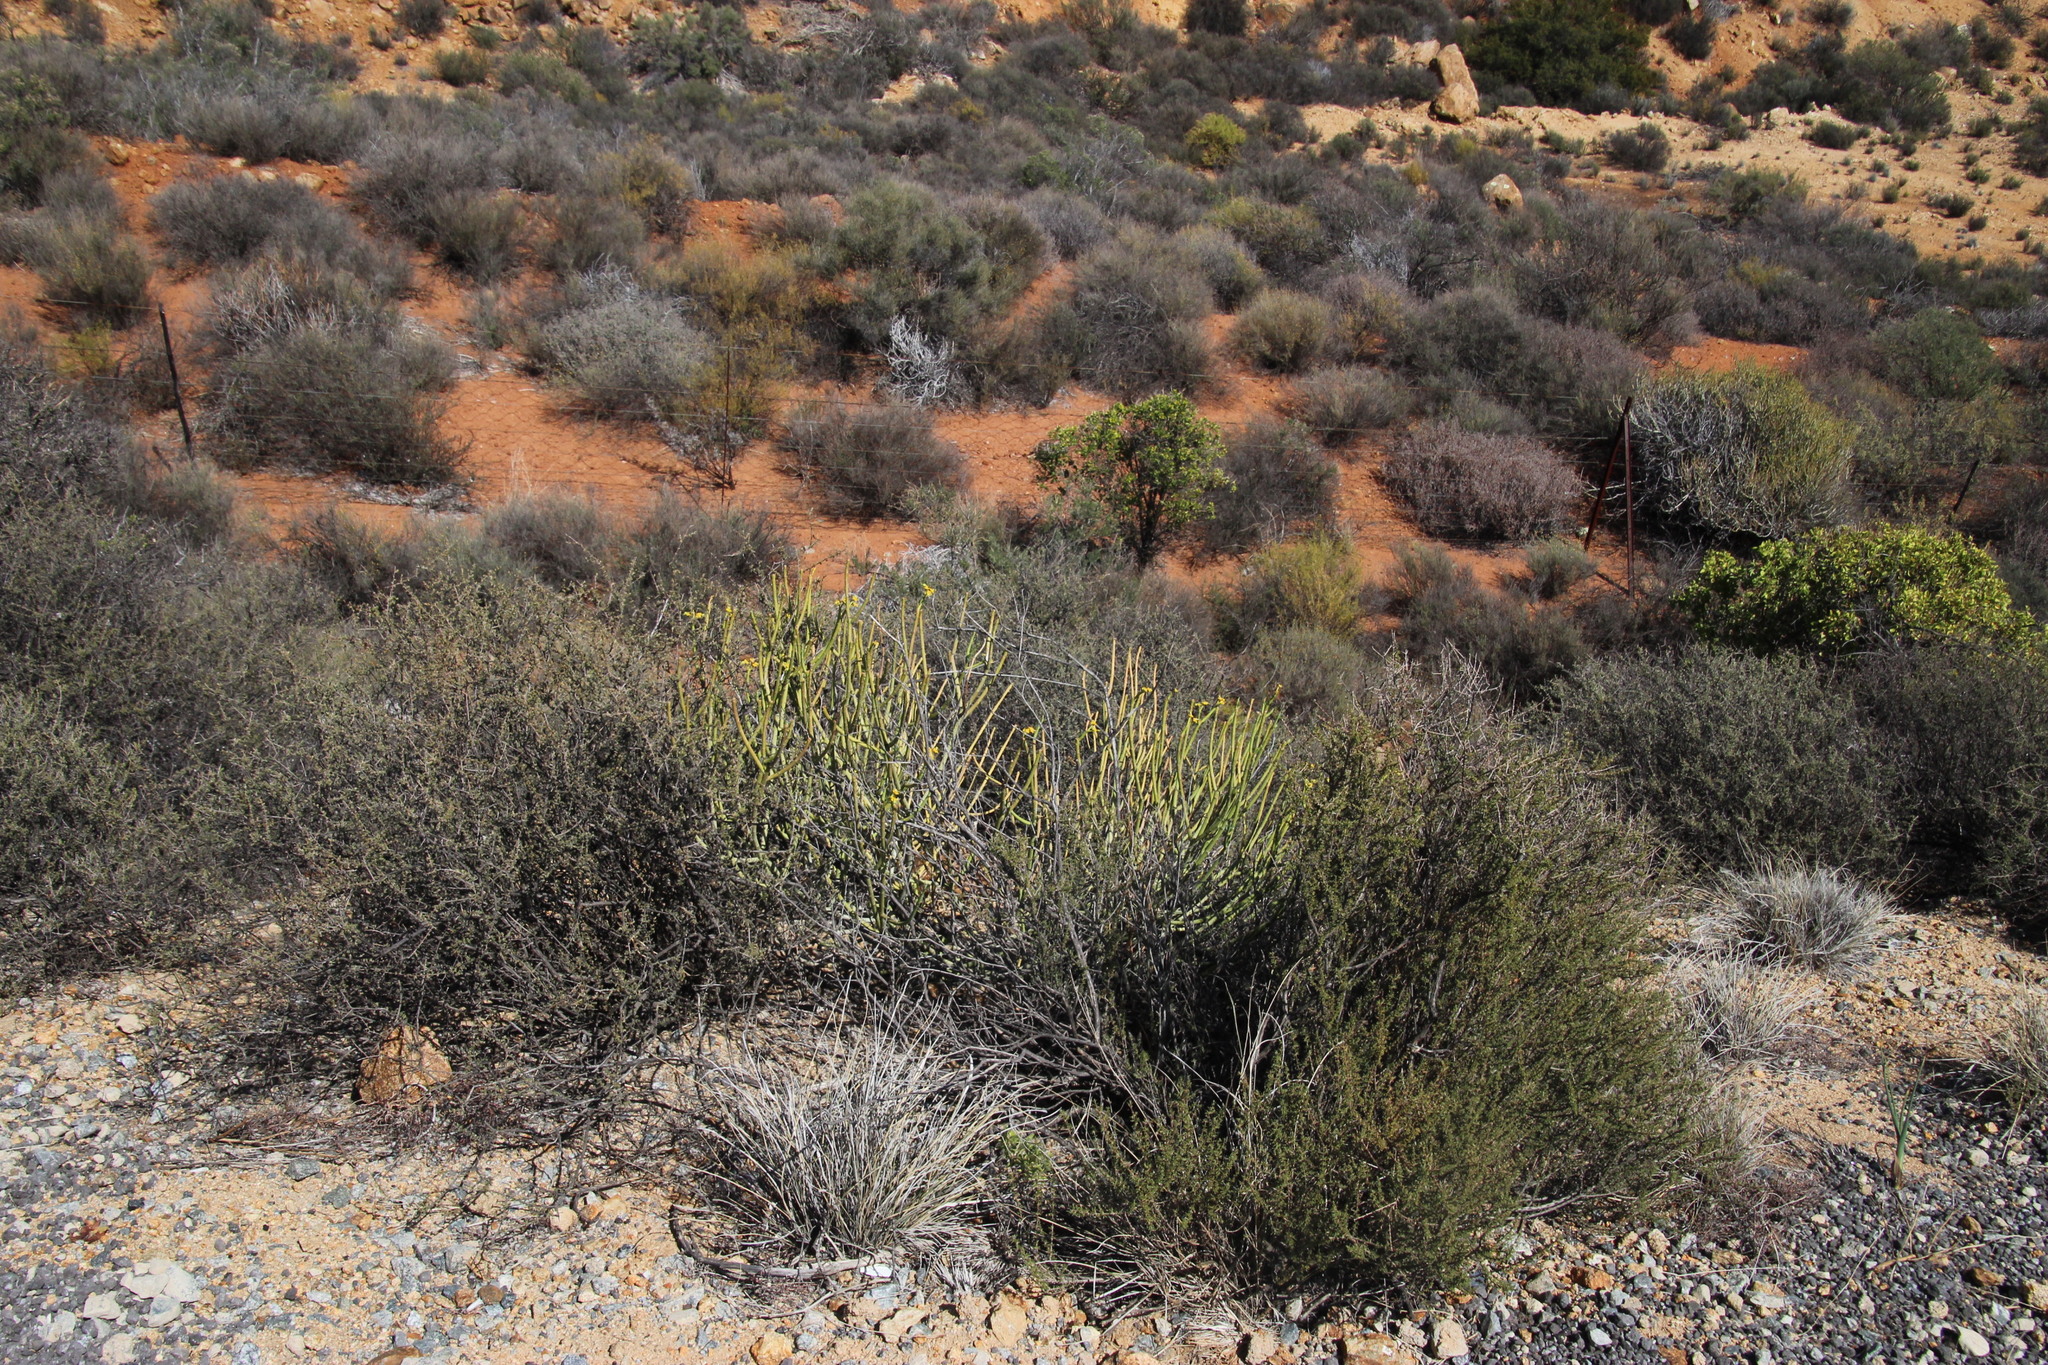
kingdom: Plantae
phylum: Tracheophyta
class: Magnoliopsida
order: Malpighiales
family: Euphorbiaceae
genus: Euphorbia
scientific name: Euphorbia mauritanica
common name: Jackal's-food
